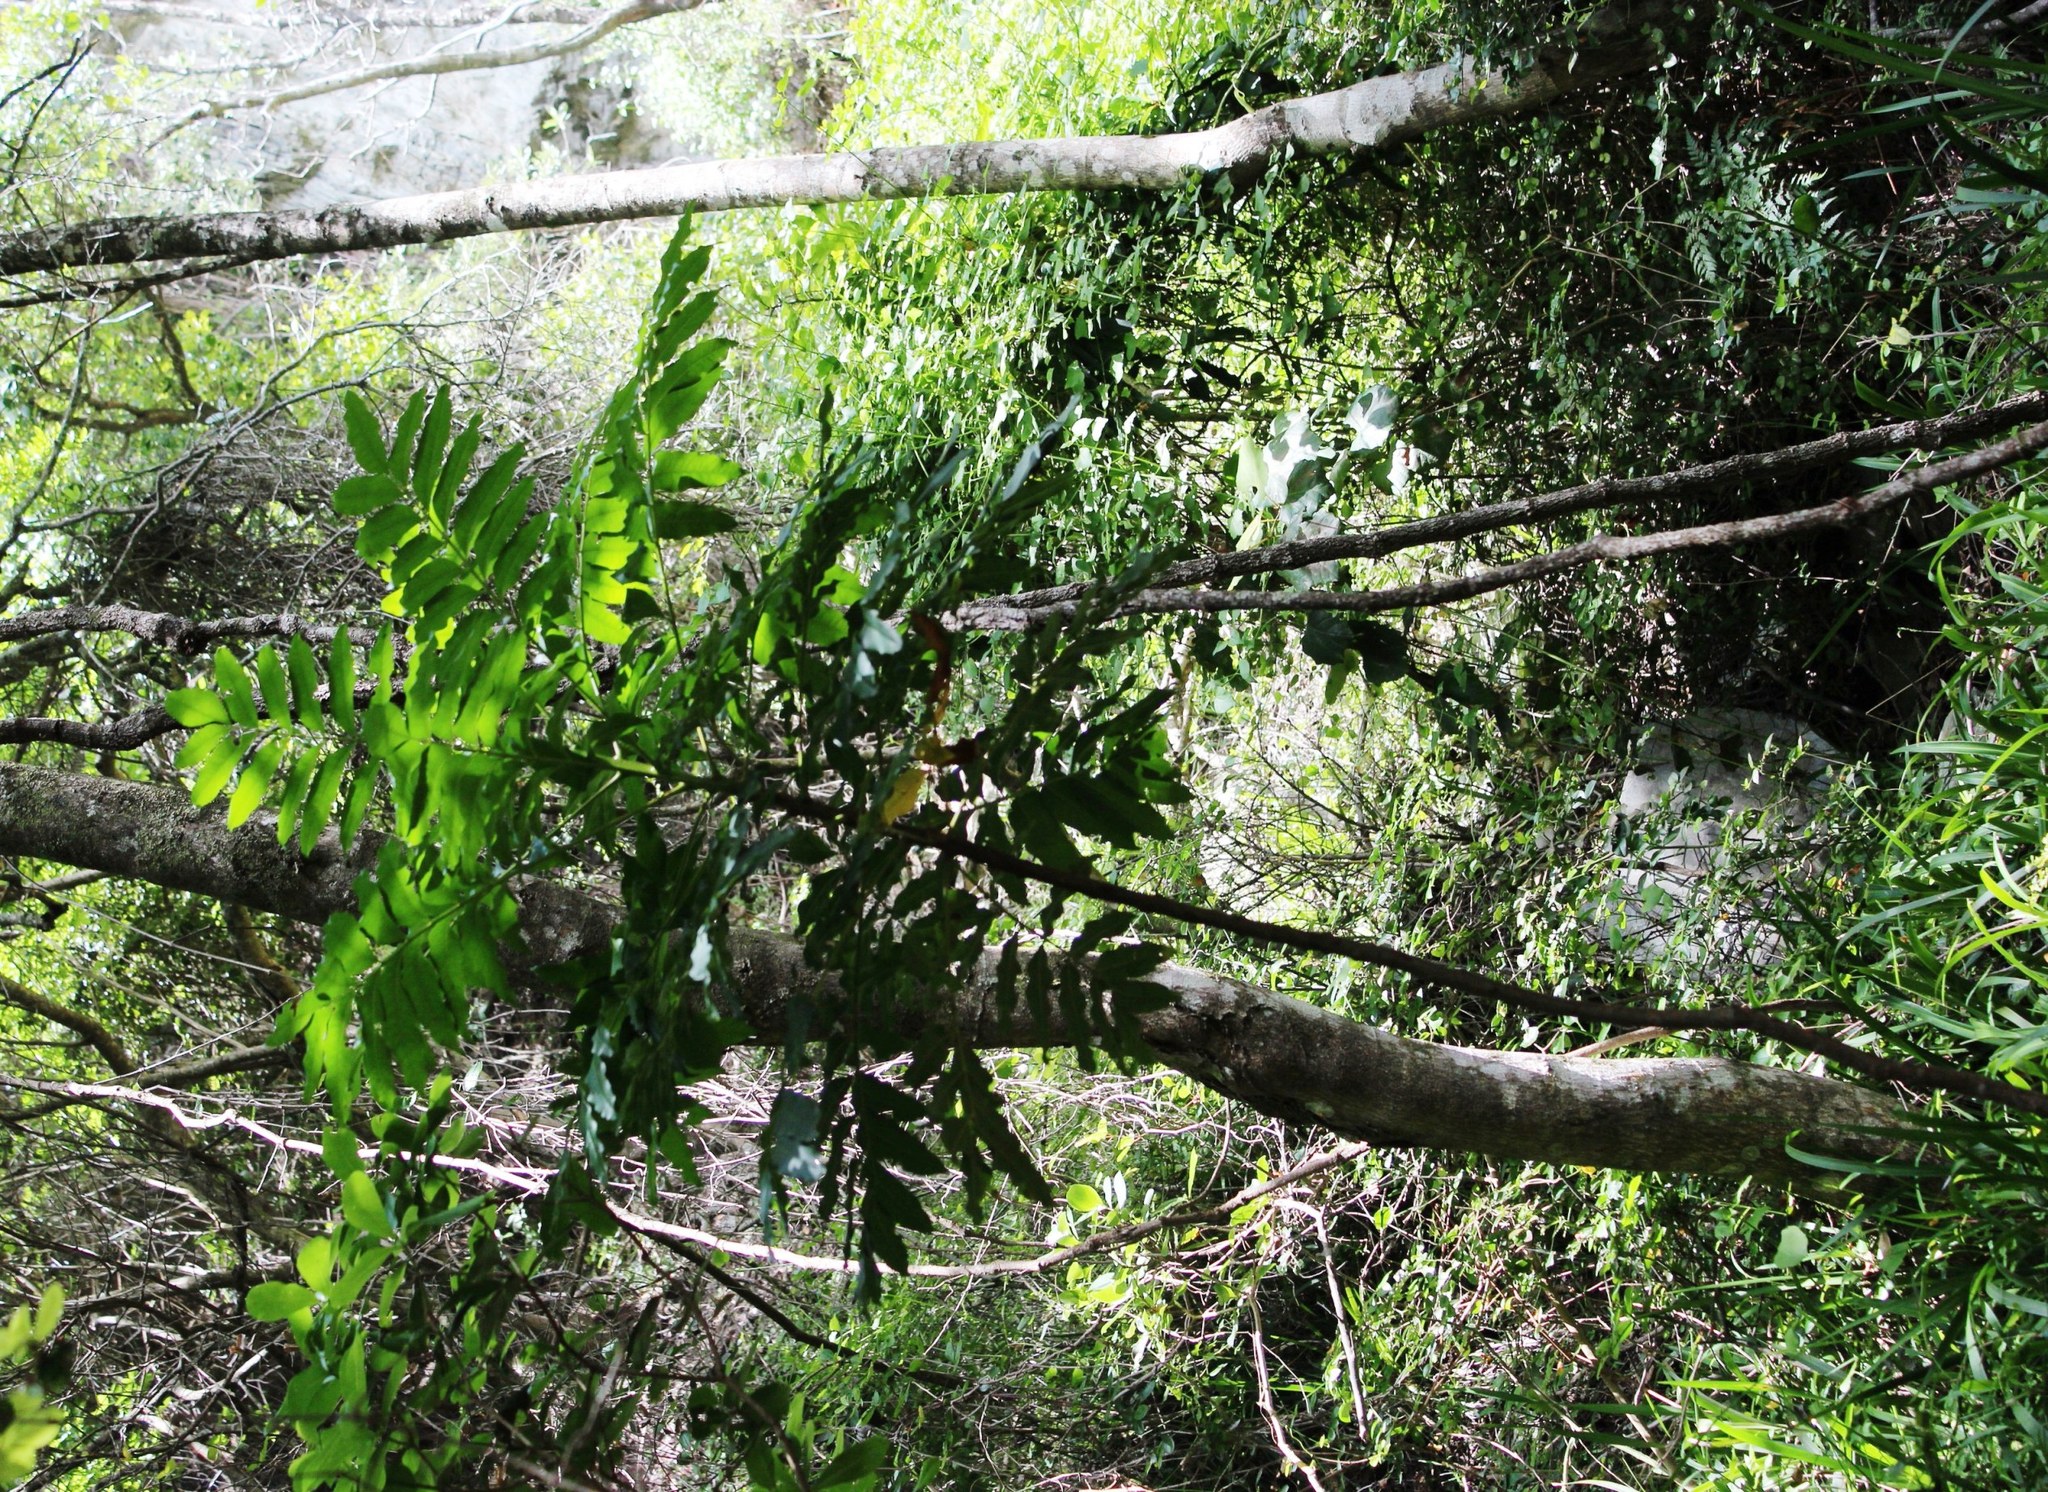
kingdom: Plantae
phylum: Tracheophyta
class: Magnoliopsida
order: Sapindales
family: Meliaceae
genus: Ekebergia
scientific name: Ekebergia capensis
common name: Cape-ash
